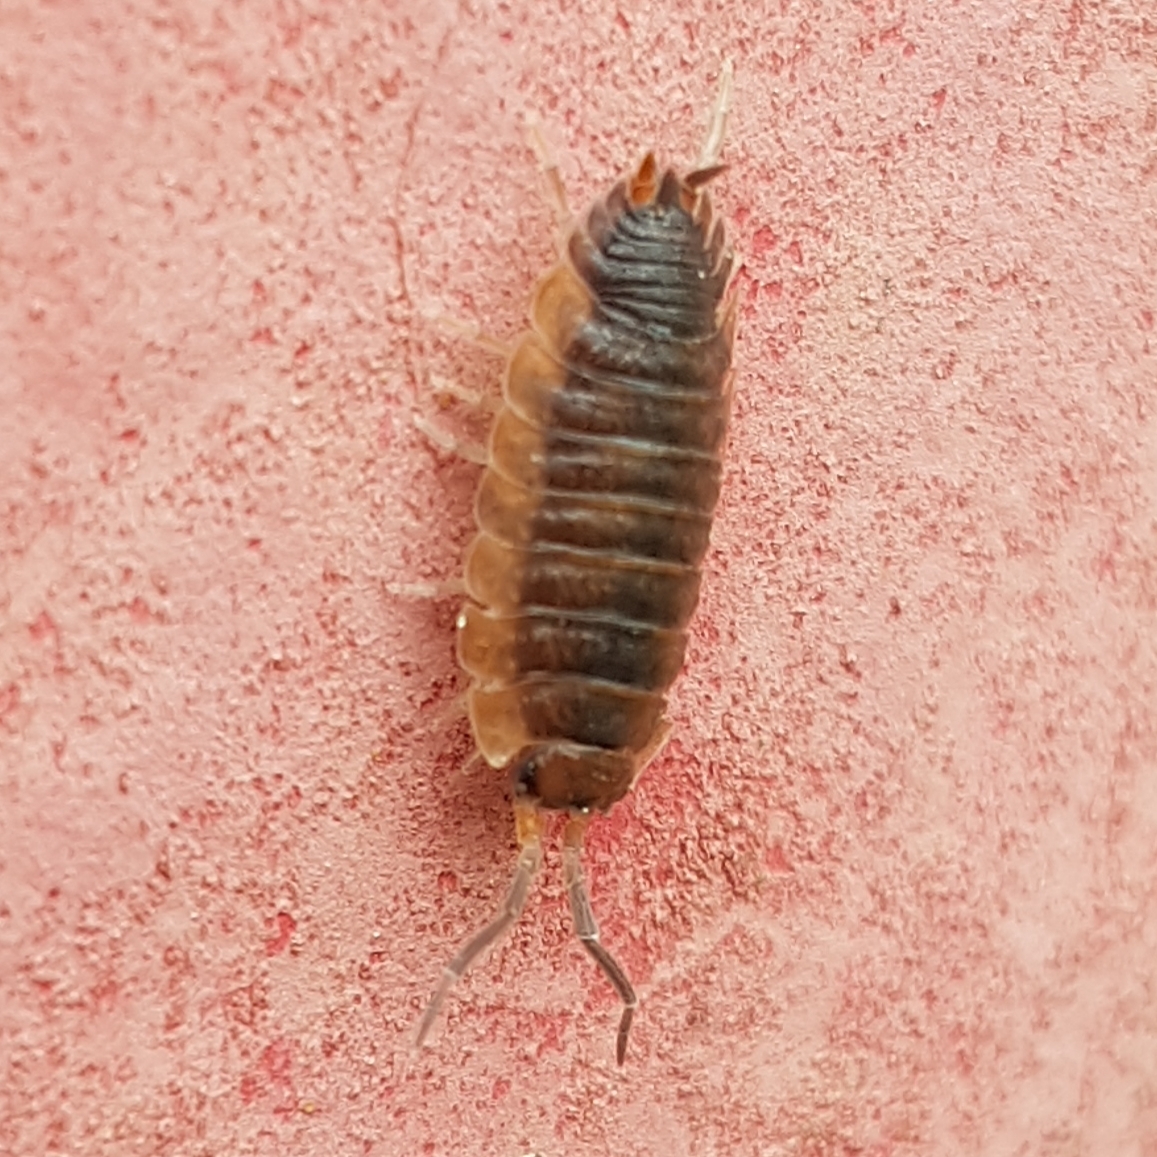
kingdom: Animalia
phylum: Arthropoda
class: Malacostraca
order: Isopoda
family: Porcellionidae
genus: Porcellio
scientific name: Porcellio scaber
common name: Common rough woodlouse
